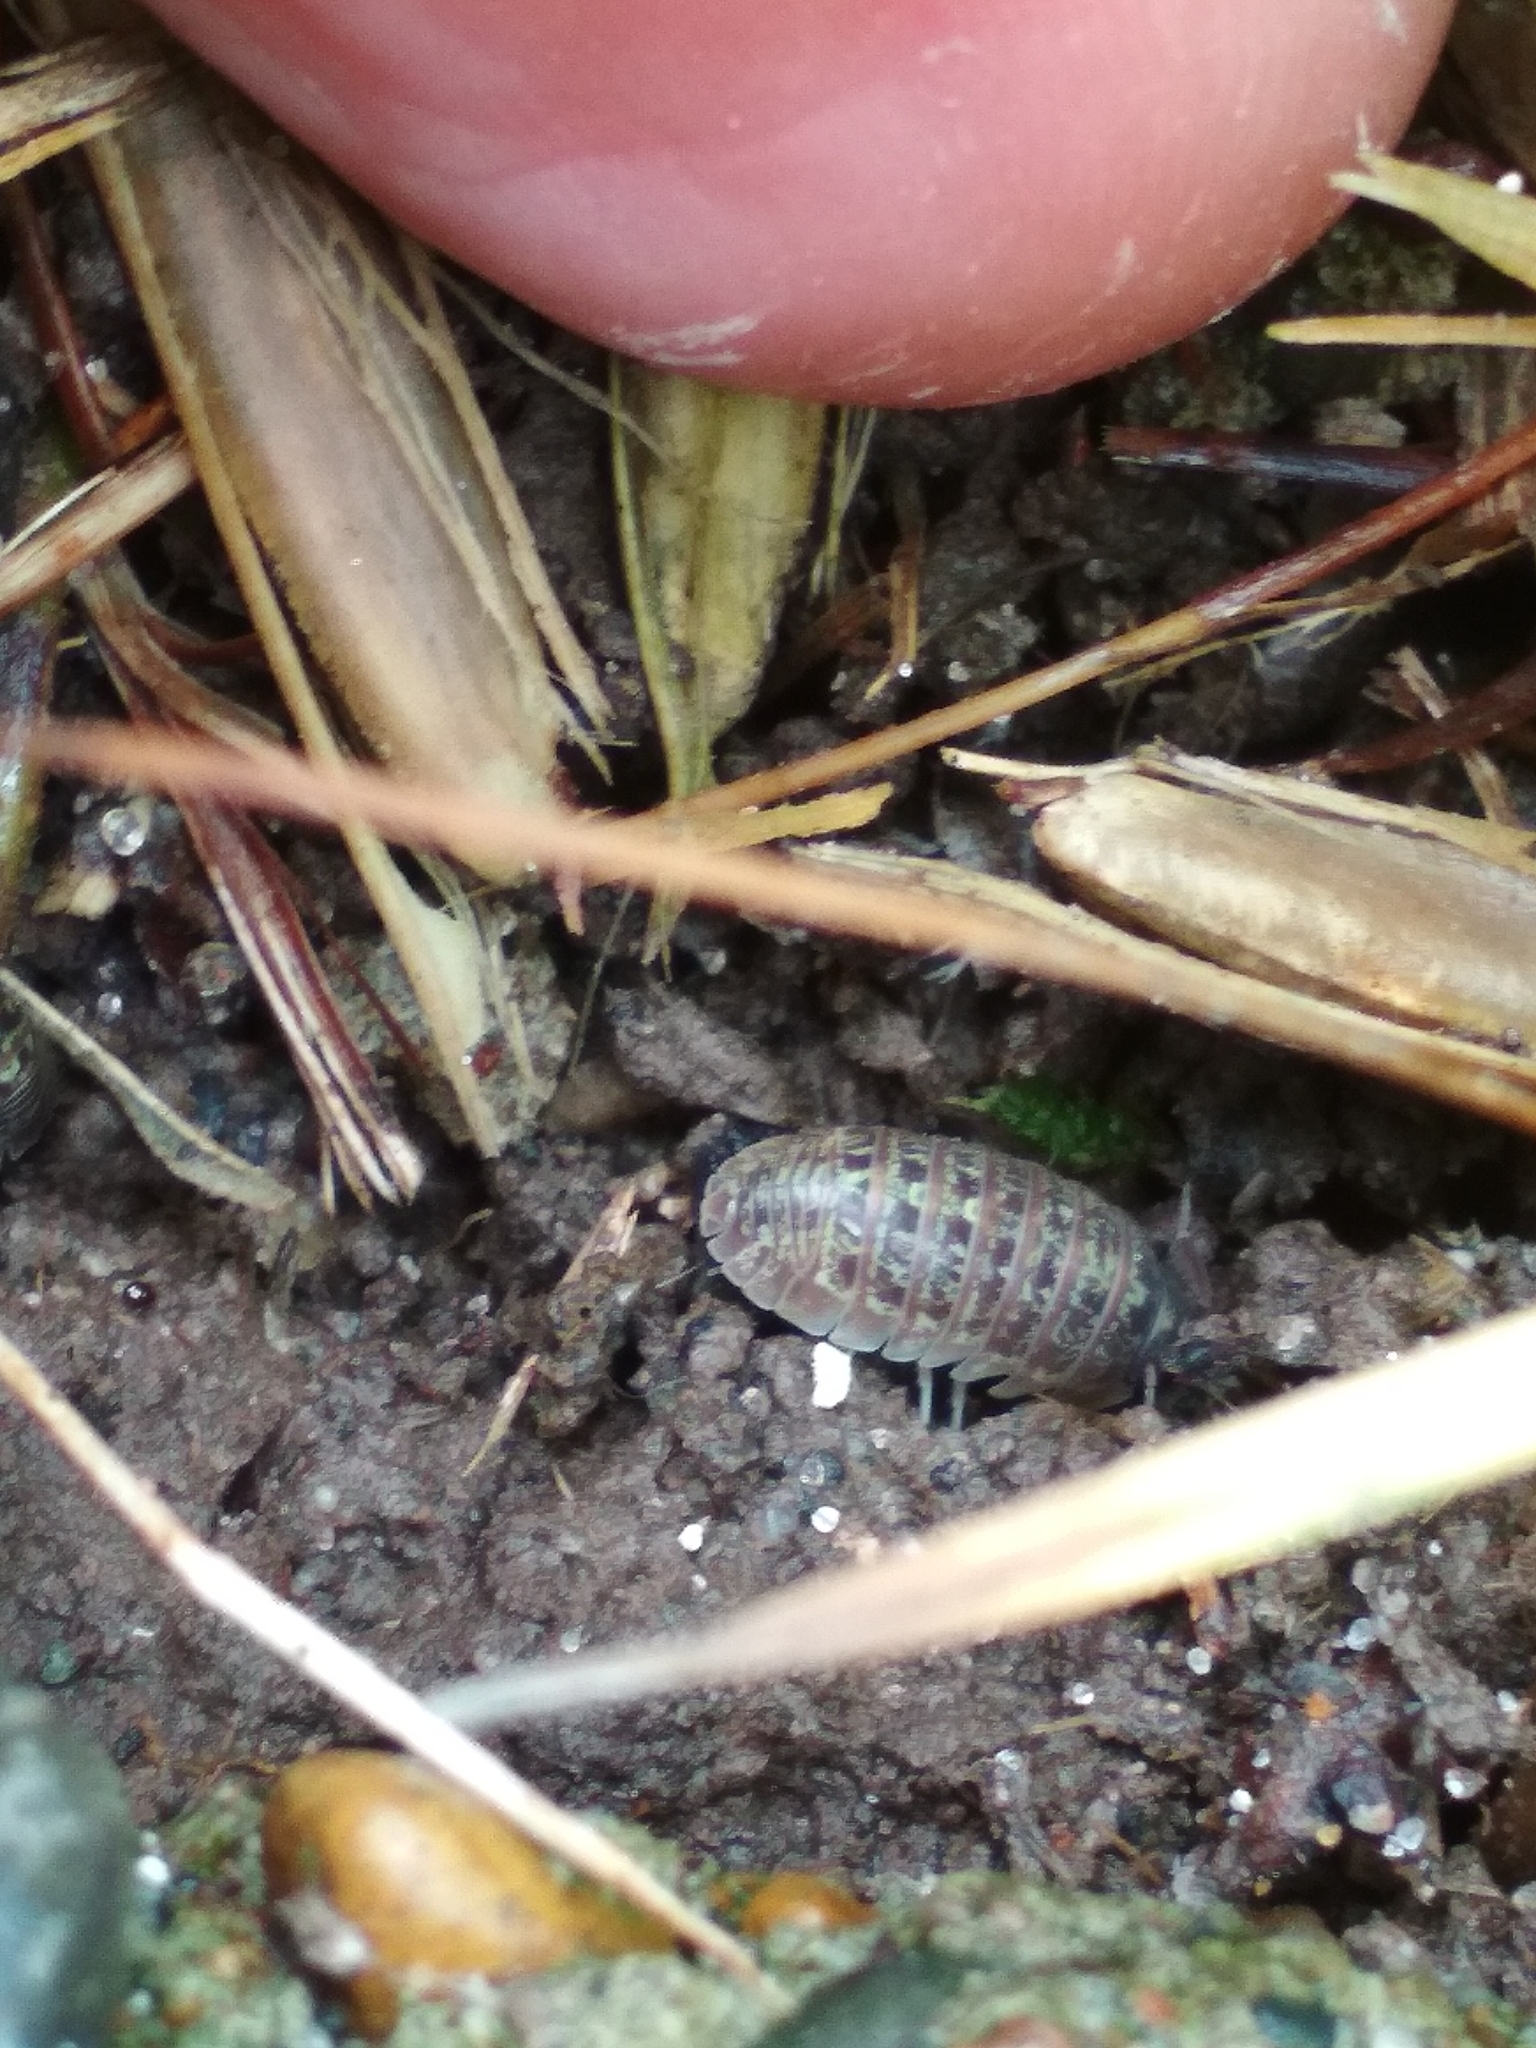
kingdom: Animalia
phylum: Arthropoda
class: Malacostraca
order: Isopoda
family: Armadillidiidae
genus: Armadillidium
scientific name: Armadillidium versicolor
